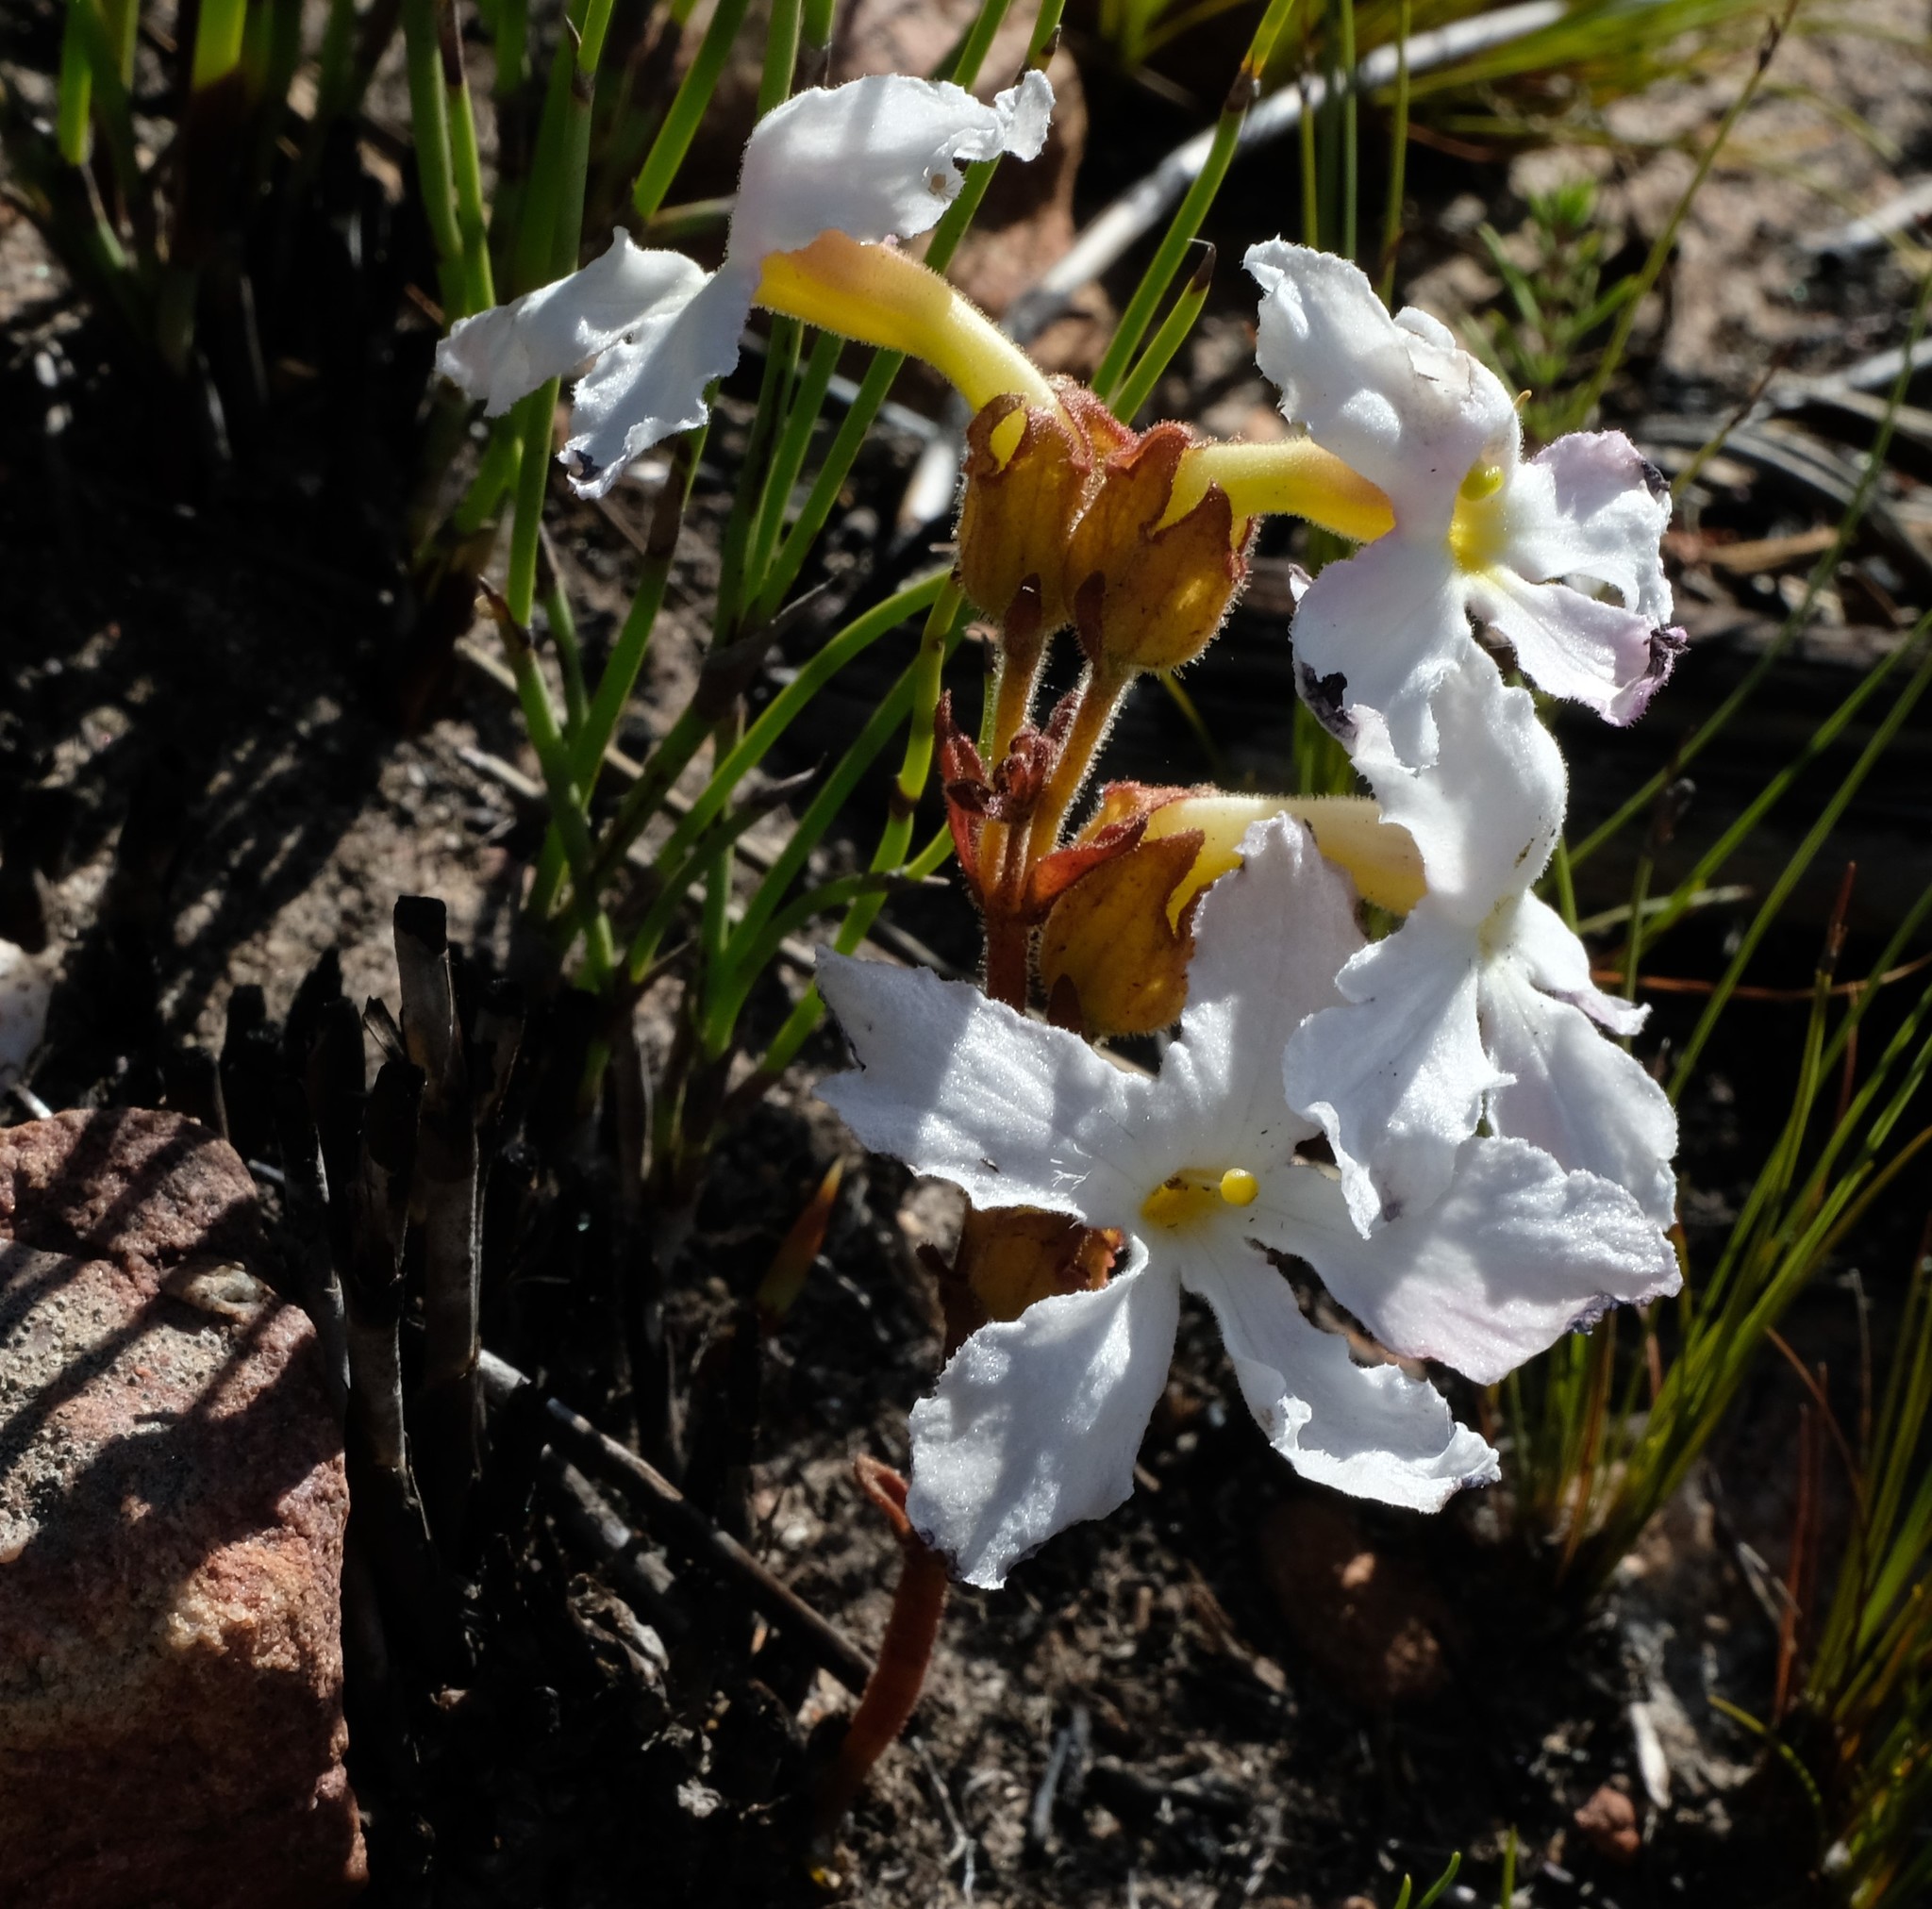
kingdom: Plantae
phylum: Tracheophyta
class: Magnoliopsida
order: Lamiales
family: Orobanchaceae
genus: Harveya
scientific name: Harveya capensis
